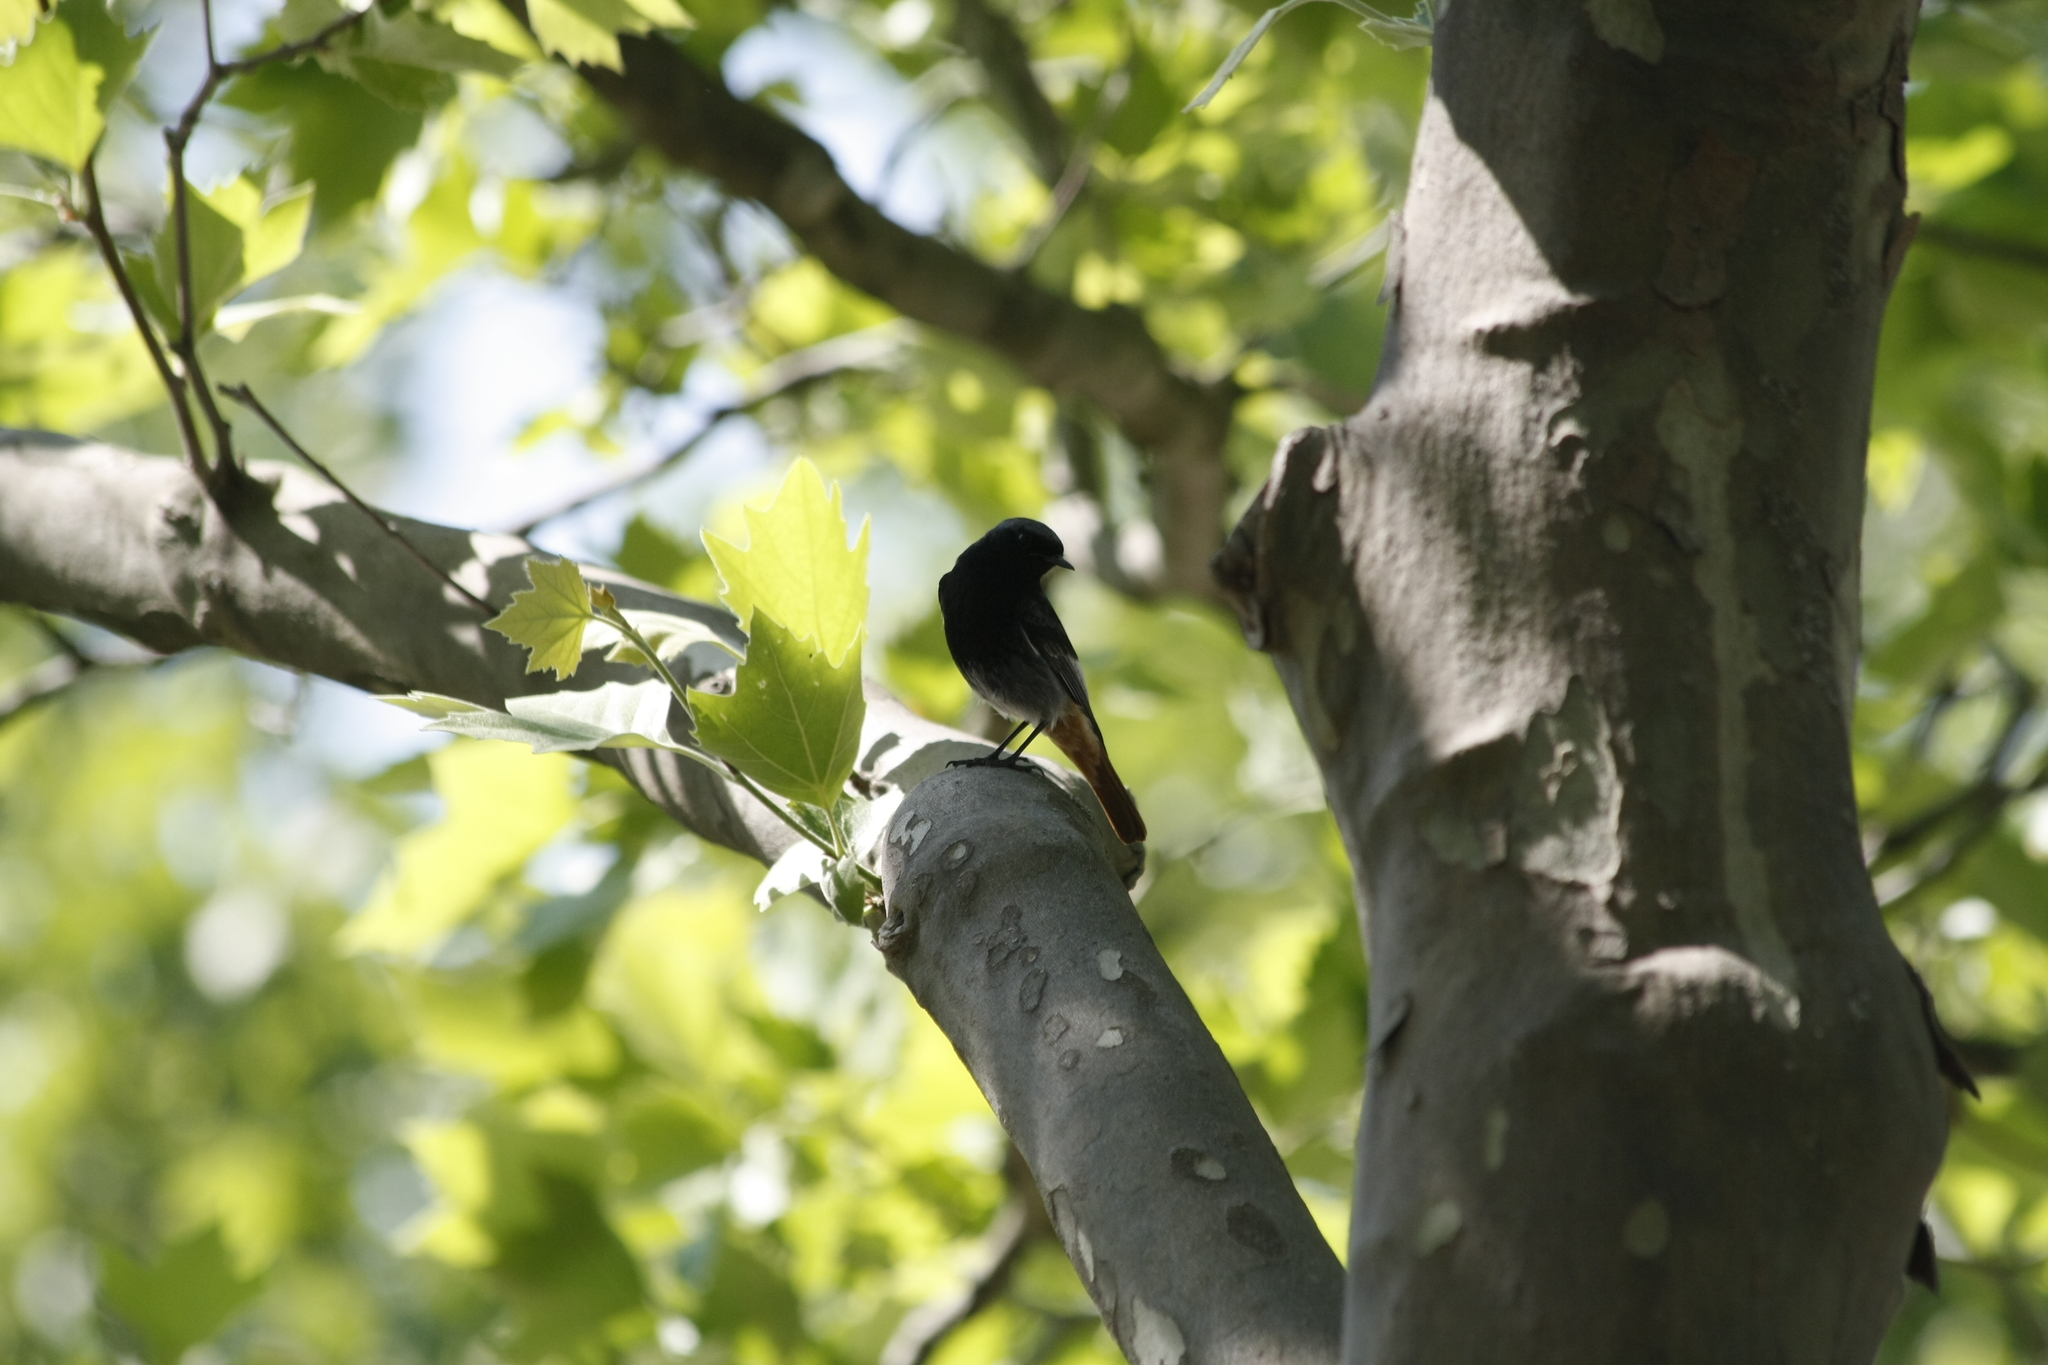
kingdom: Animalia
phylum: Chordata
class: Aves
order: Passeriformes
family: Muscicapidae
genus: Phoenicurus
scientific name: Phoenicurus ochruros
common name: Black redstart
